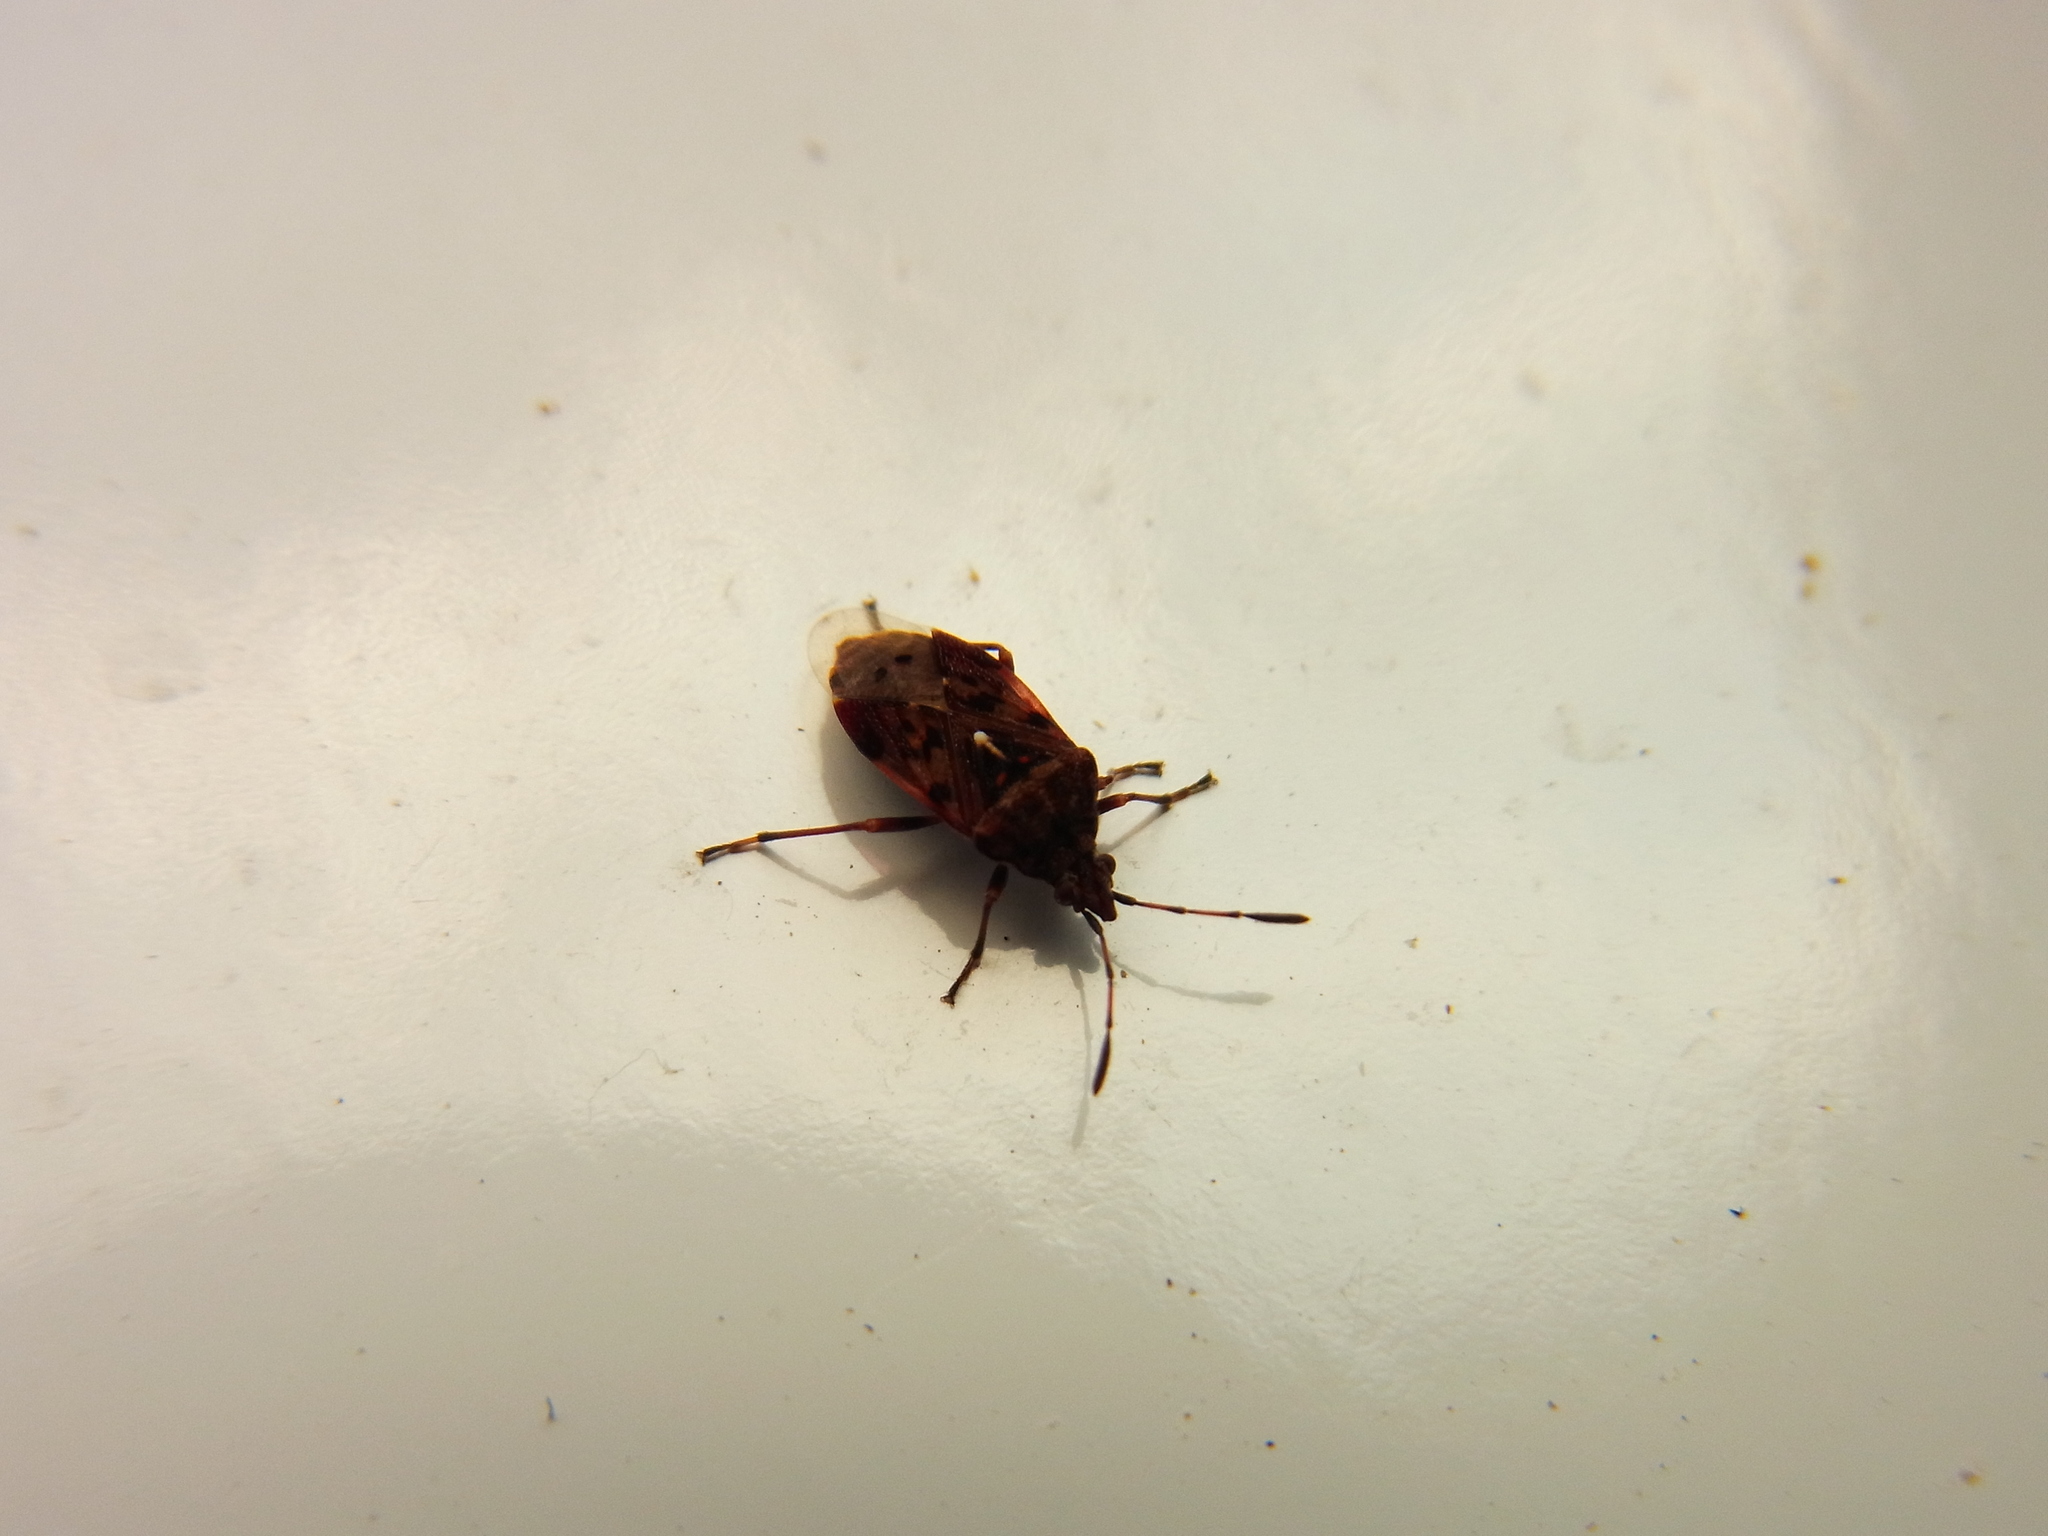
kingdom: Animalia
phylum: Arthropoda
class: Insecta
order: Hemiptera
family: Lygaeidae
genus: Pylorgus
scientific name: Pylorgus colon
